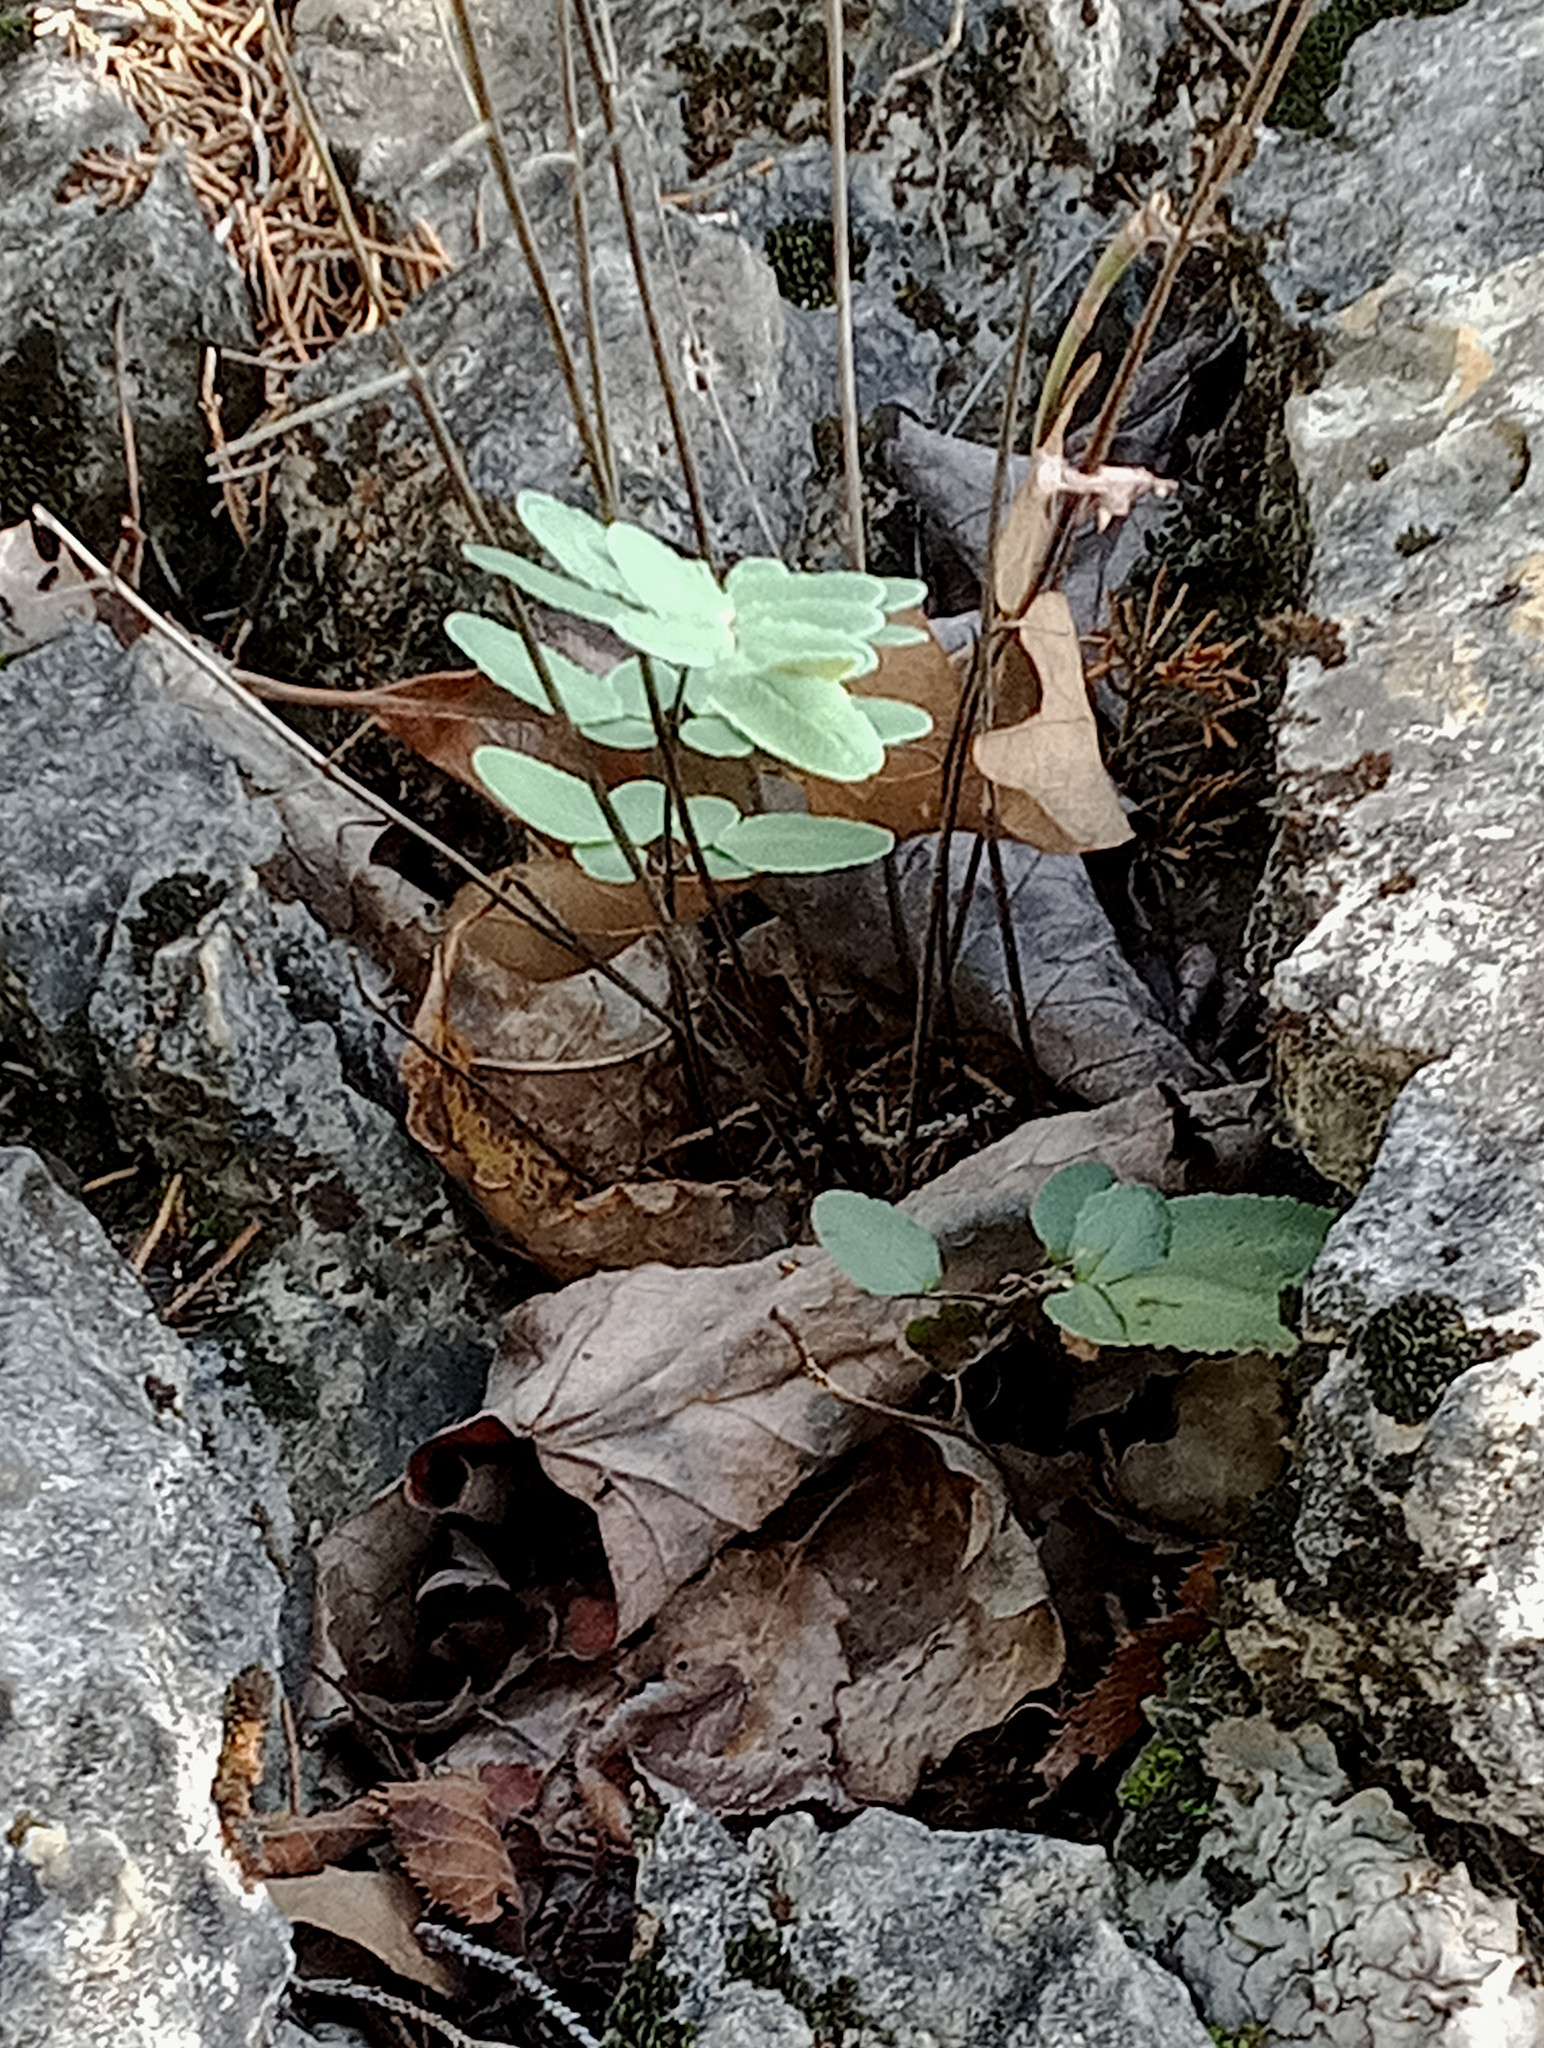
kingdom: Plantae
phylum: Tracheophyta
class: Polypodiopsida
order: Polypodiales
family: Pteridaceae
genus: Pellaea
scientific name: Pellaea atropurpurea
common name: Hairy cliffbrake
